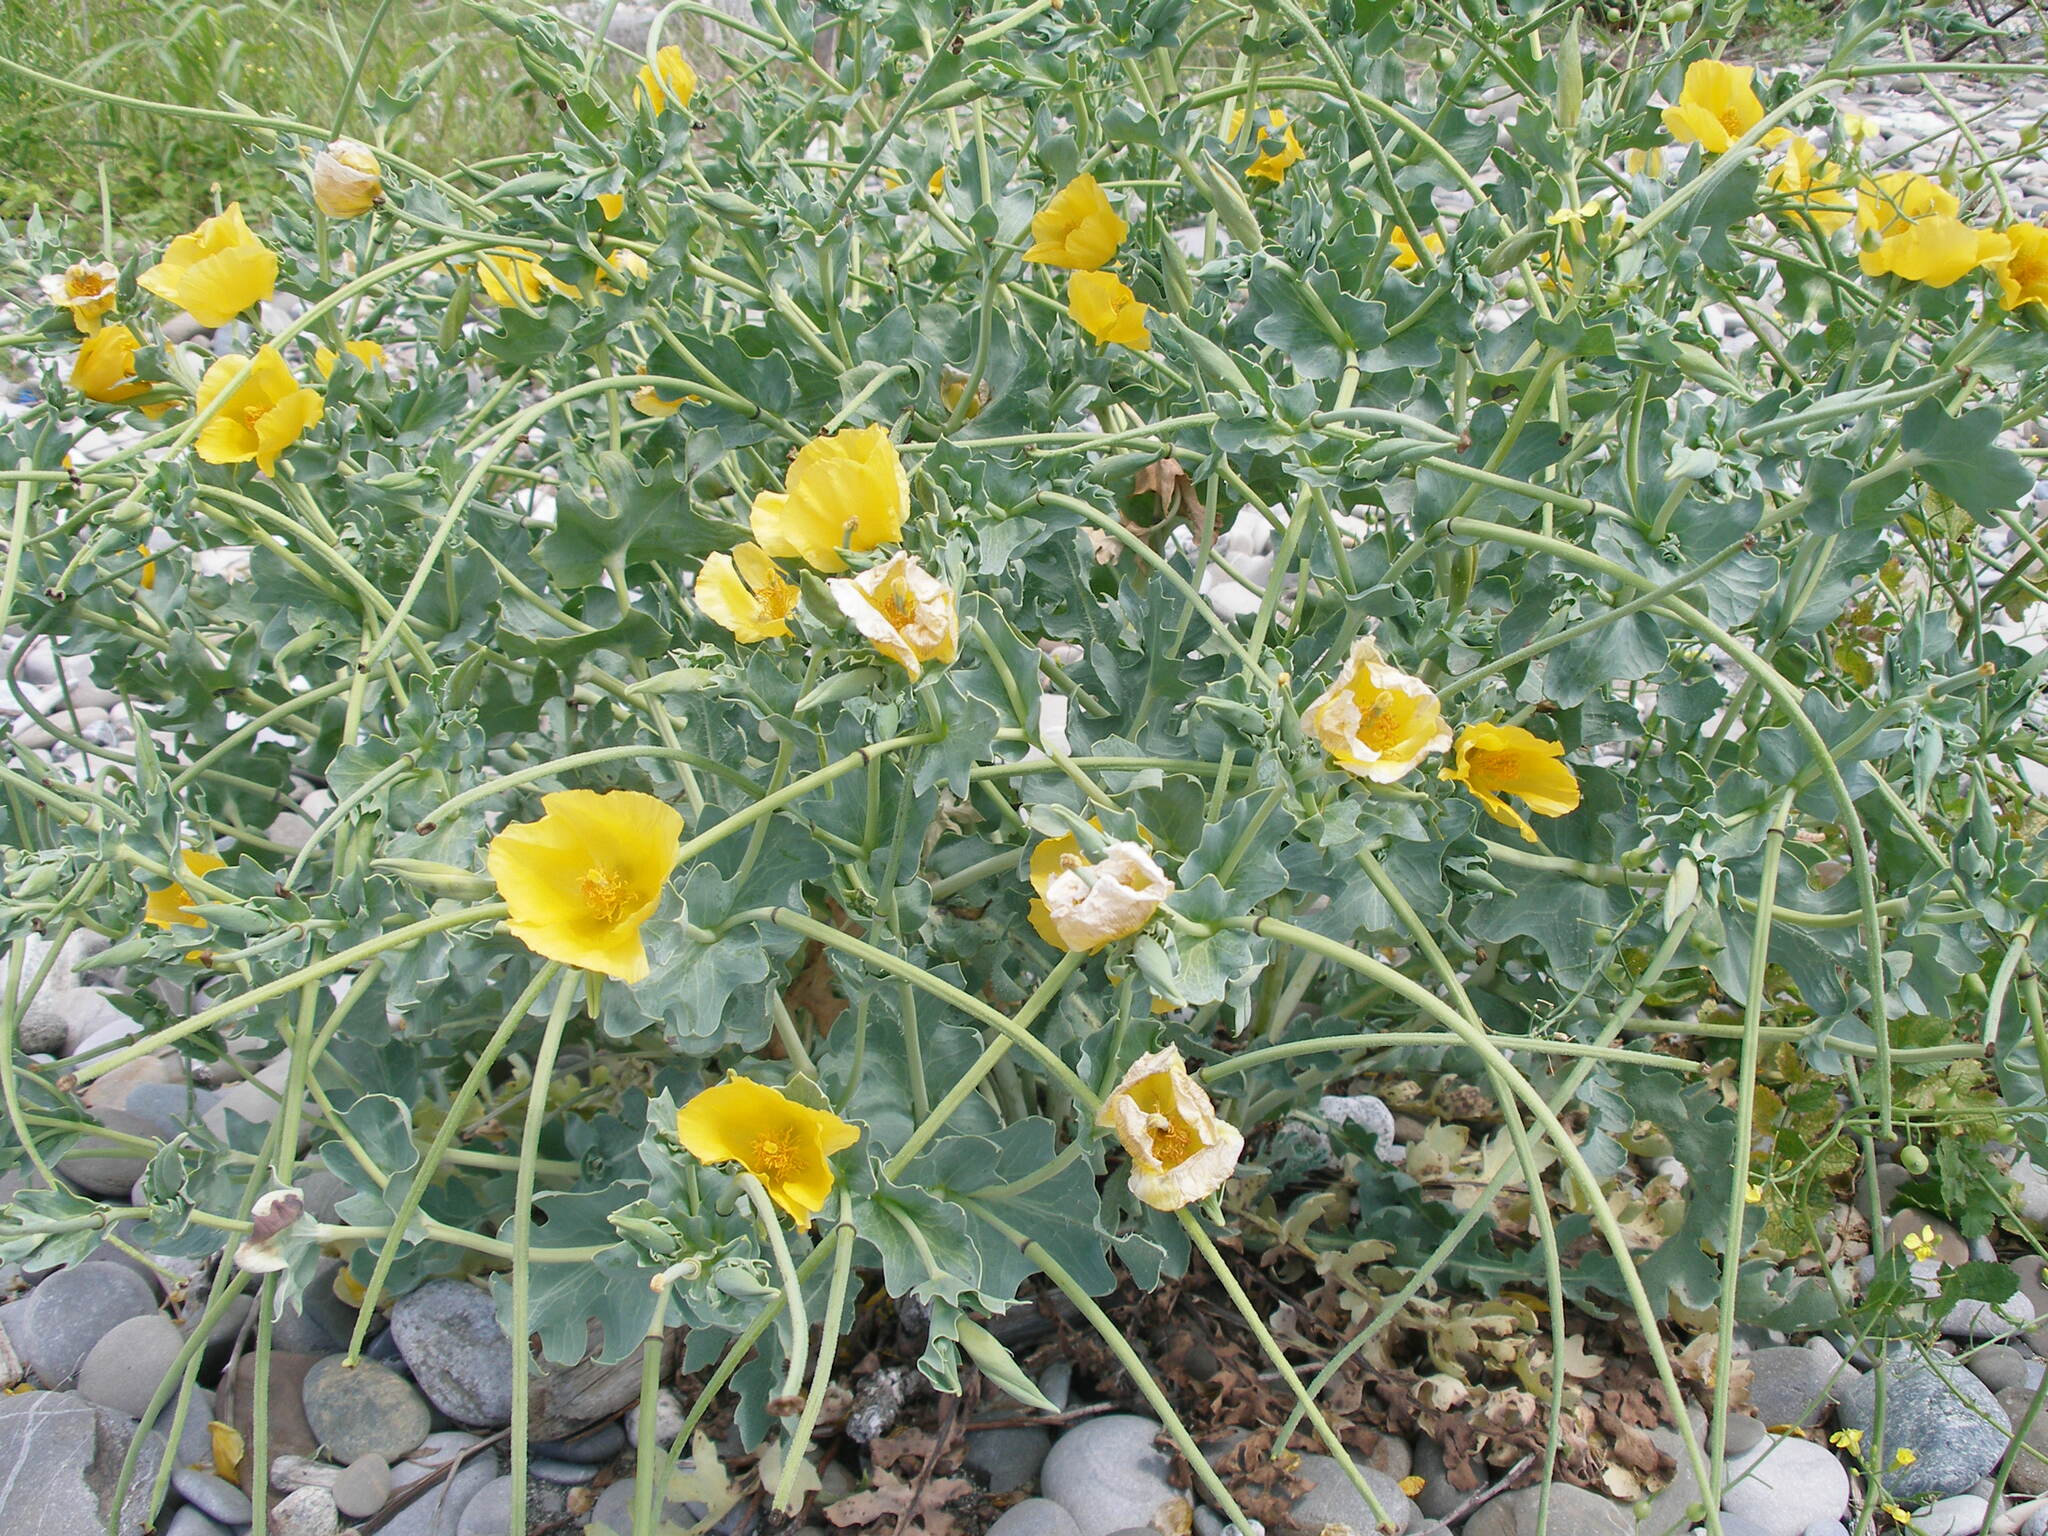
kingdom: Plantae
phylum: Tracheophyta
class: Magnoliopsida
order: Ranunculales
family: Papaveraceae
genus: Glaucium
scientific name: Glaucium flavum
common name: Yellow horned-poppy
